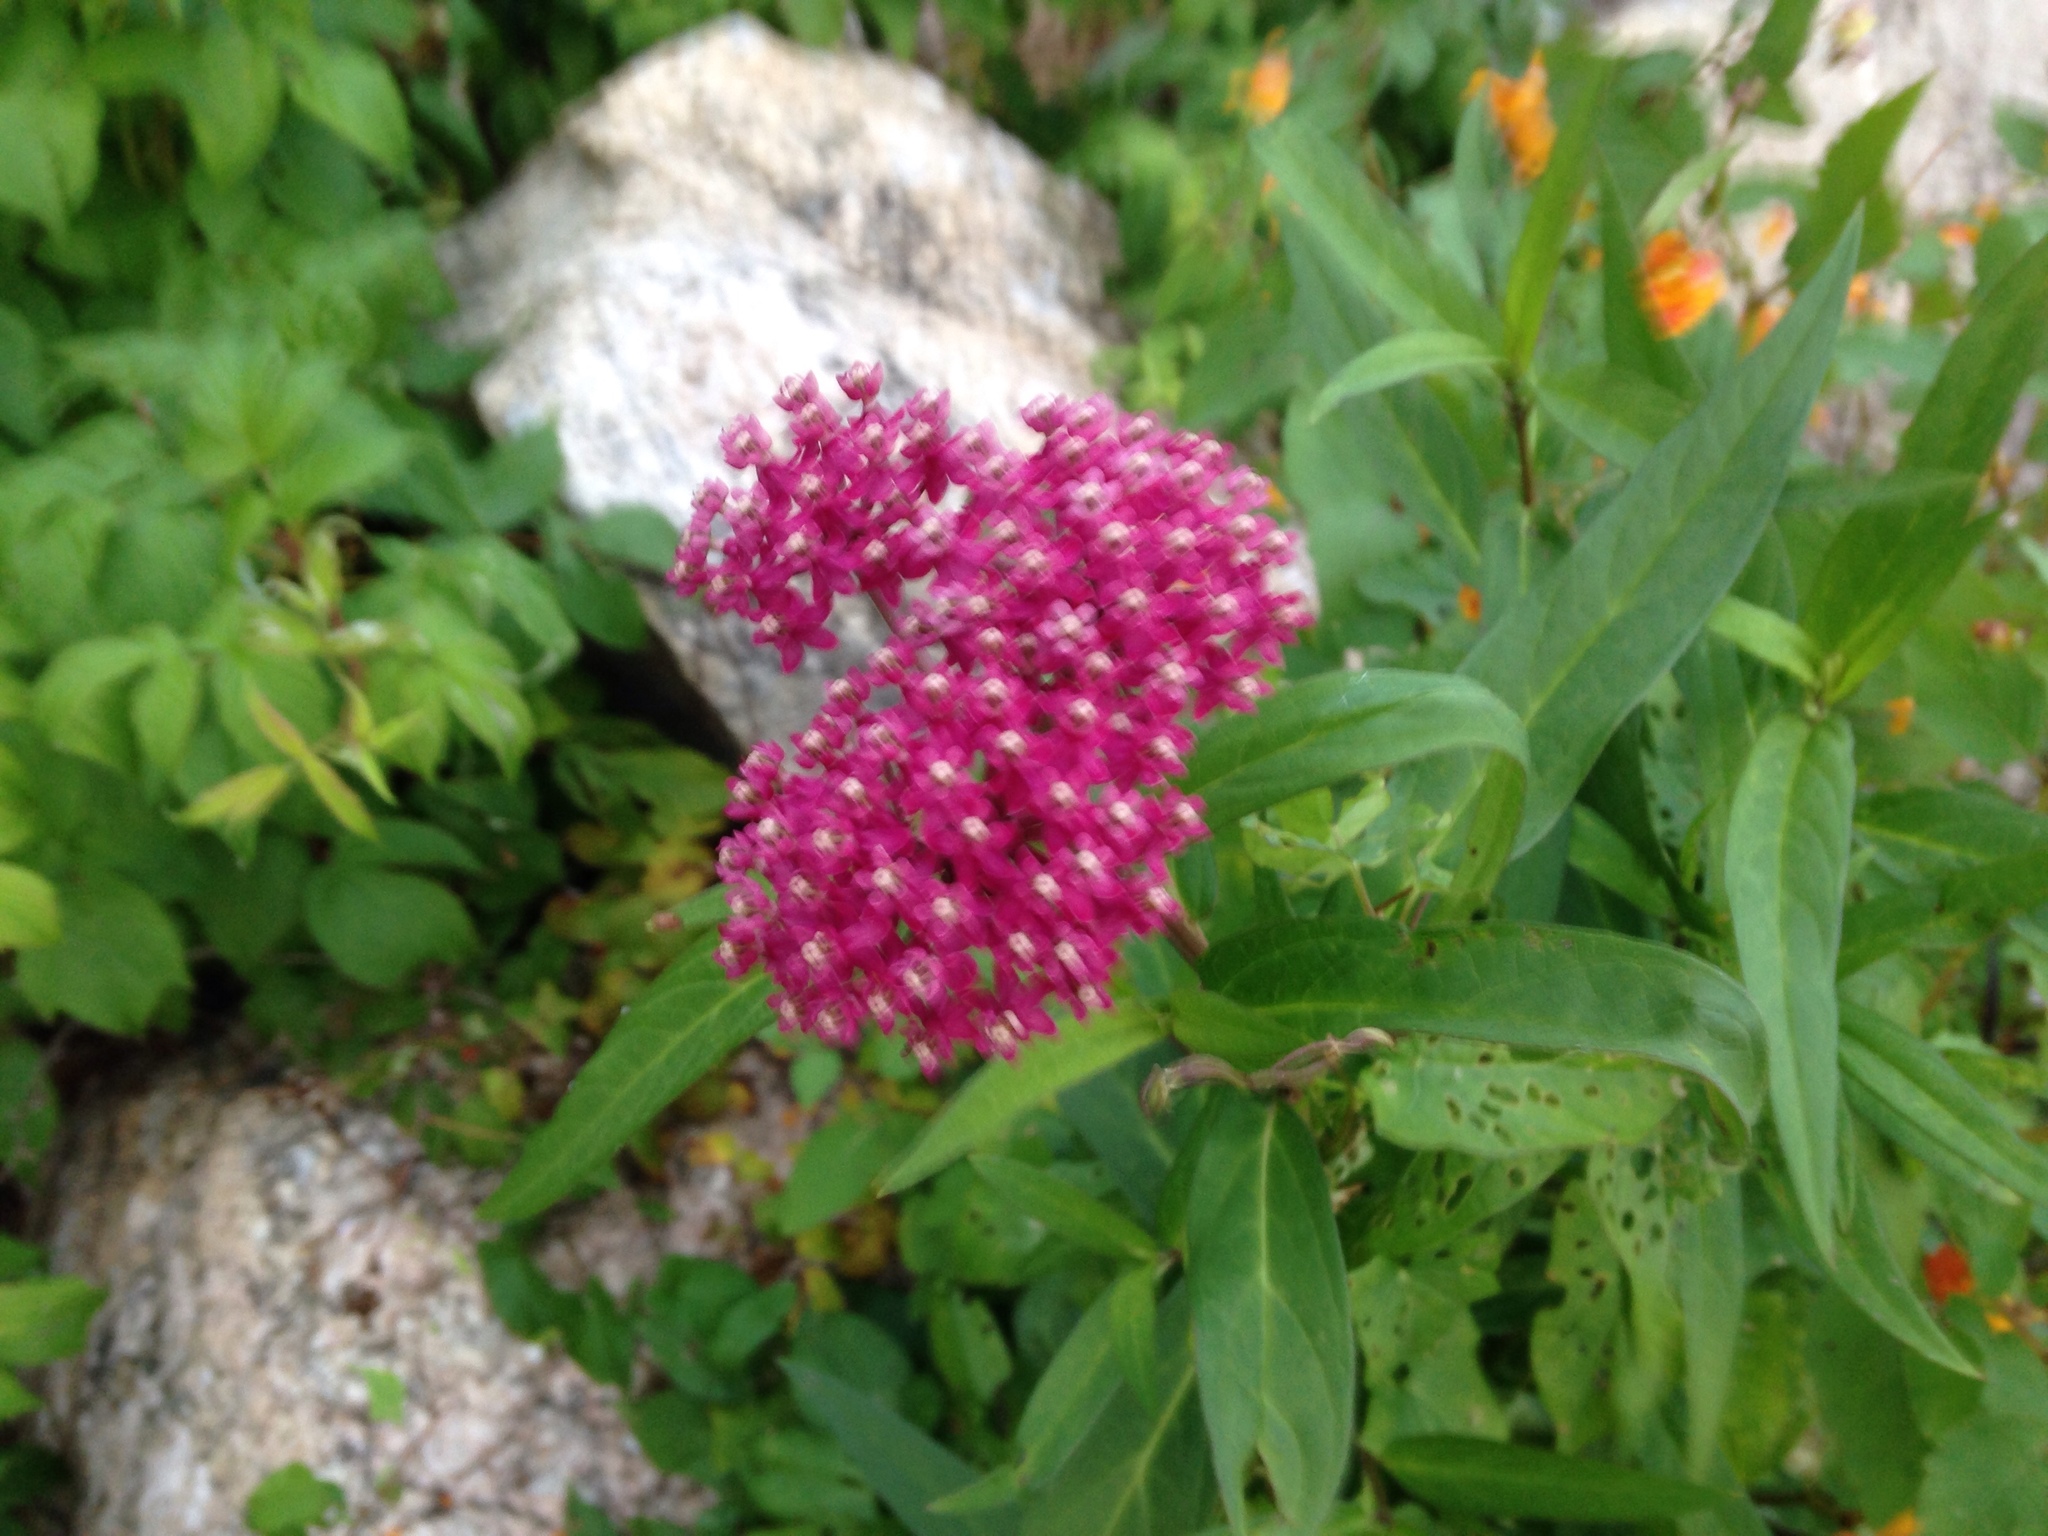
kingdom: Plantae
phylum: Tracheophyta
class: Magnoliopsida
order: Gentianales
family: Apocynaceae
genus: Asclepias
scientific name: Asclepias incarnata
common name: Swamp milkweed
